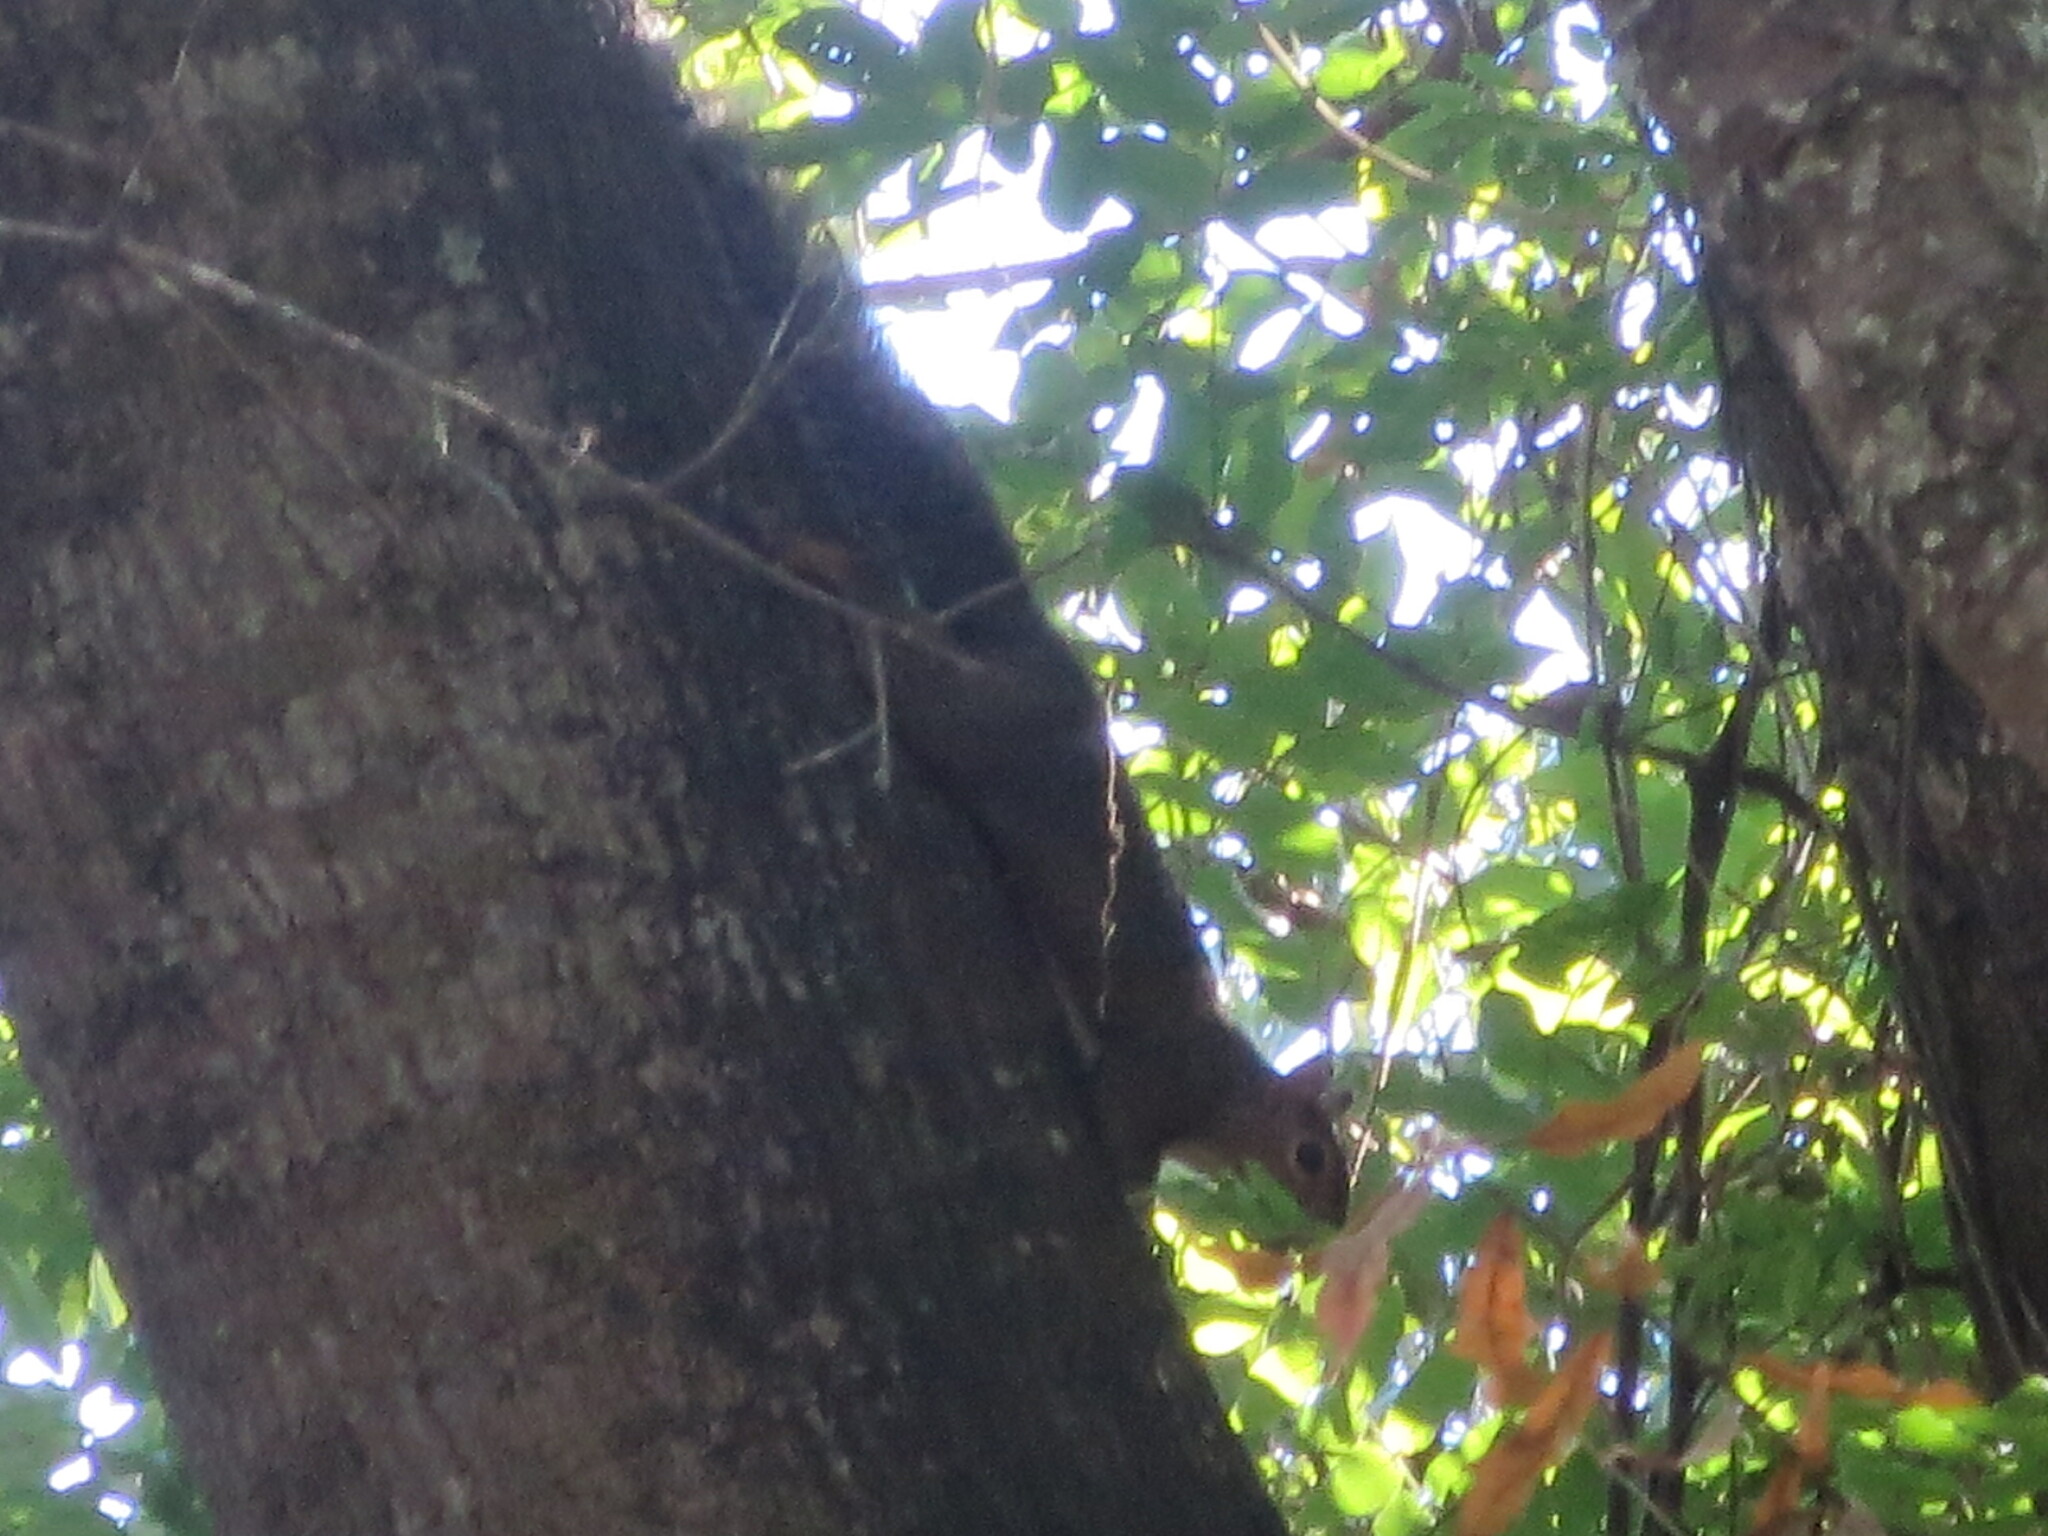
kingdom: Animalia
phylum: Chordata
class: Mammalia
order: Rodentia
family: Sciuridae
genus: Sciurus
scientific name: Sciurus carolinensis
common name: Eastern gray squirrel
